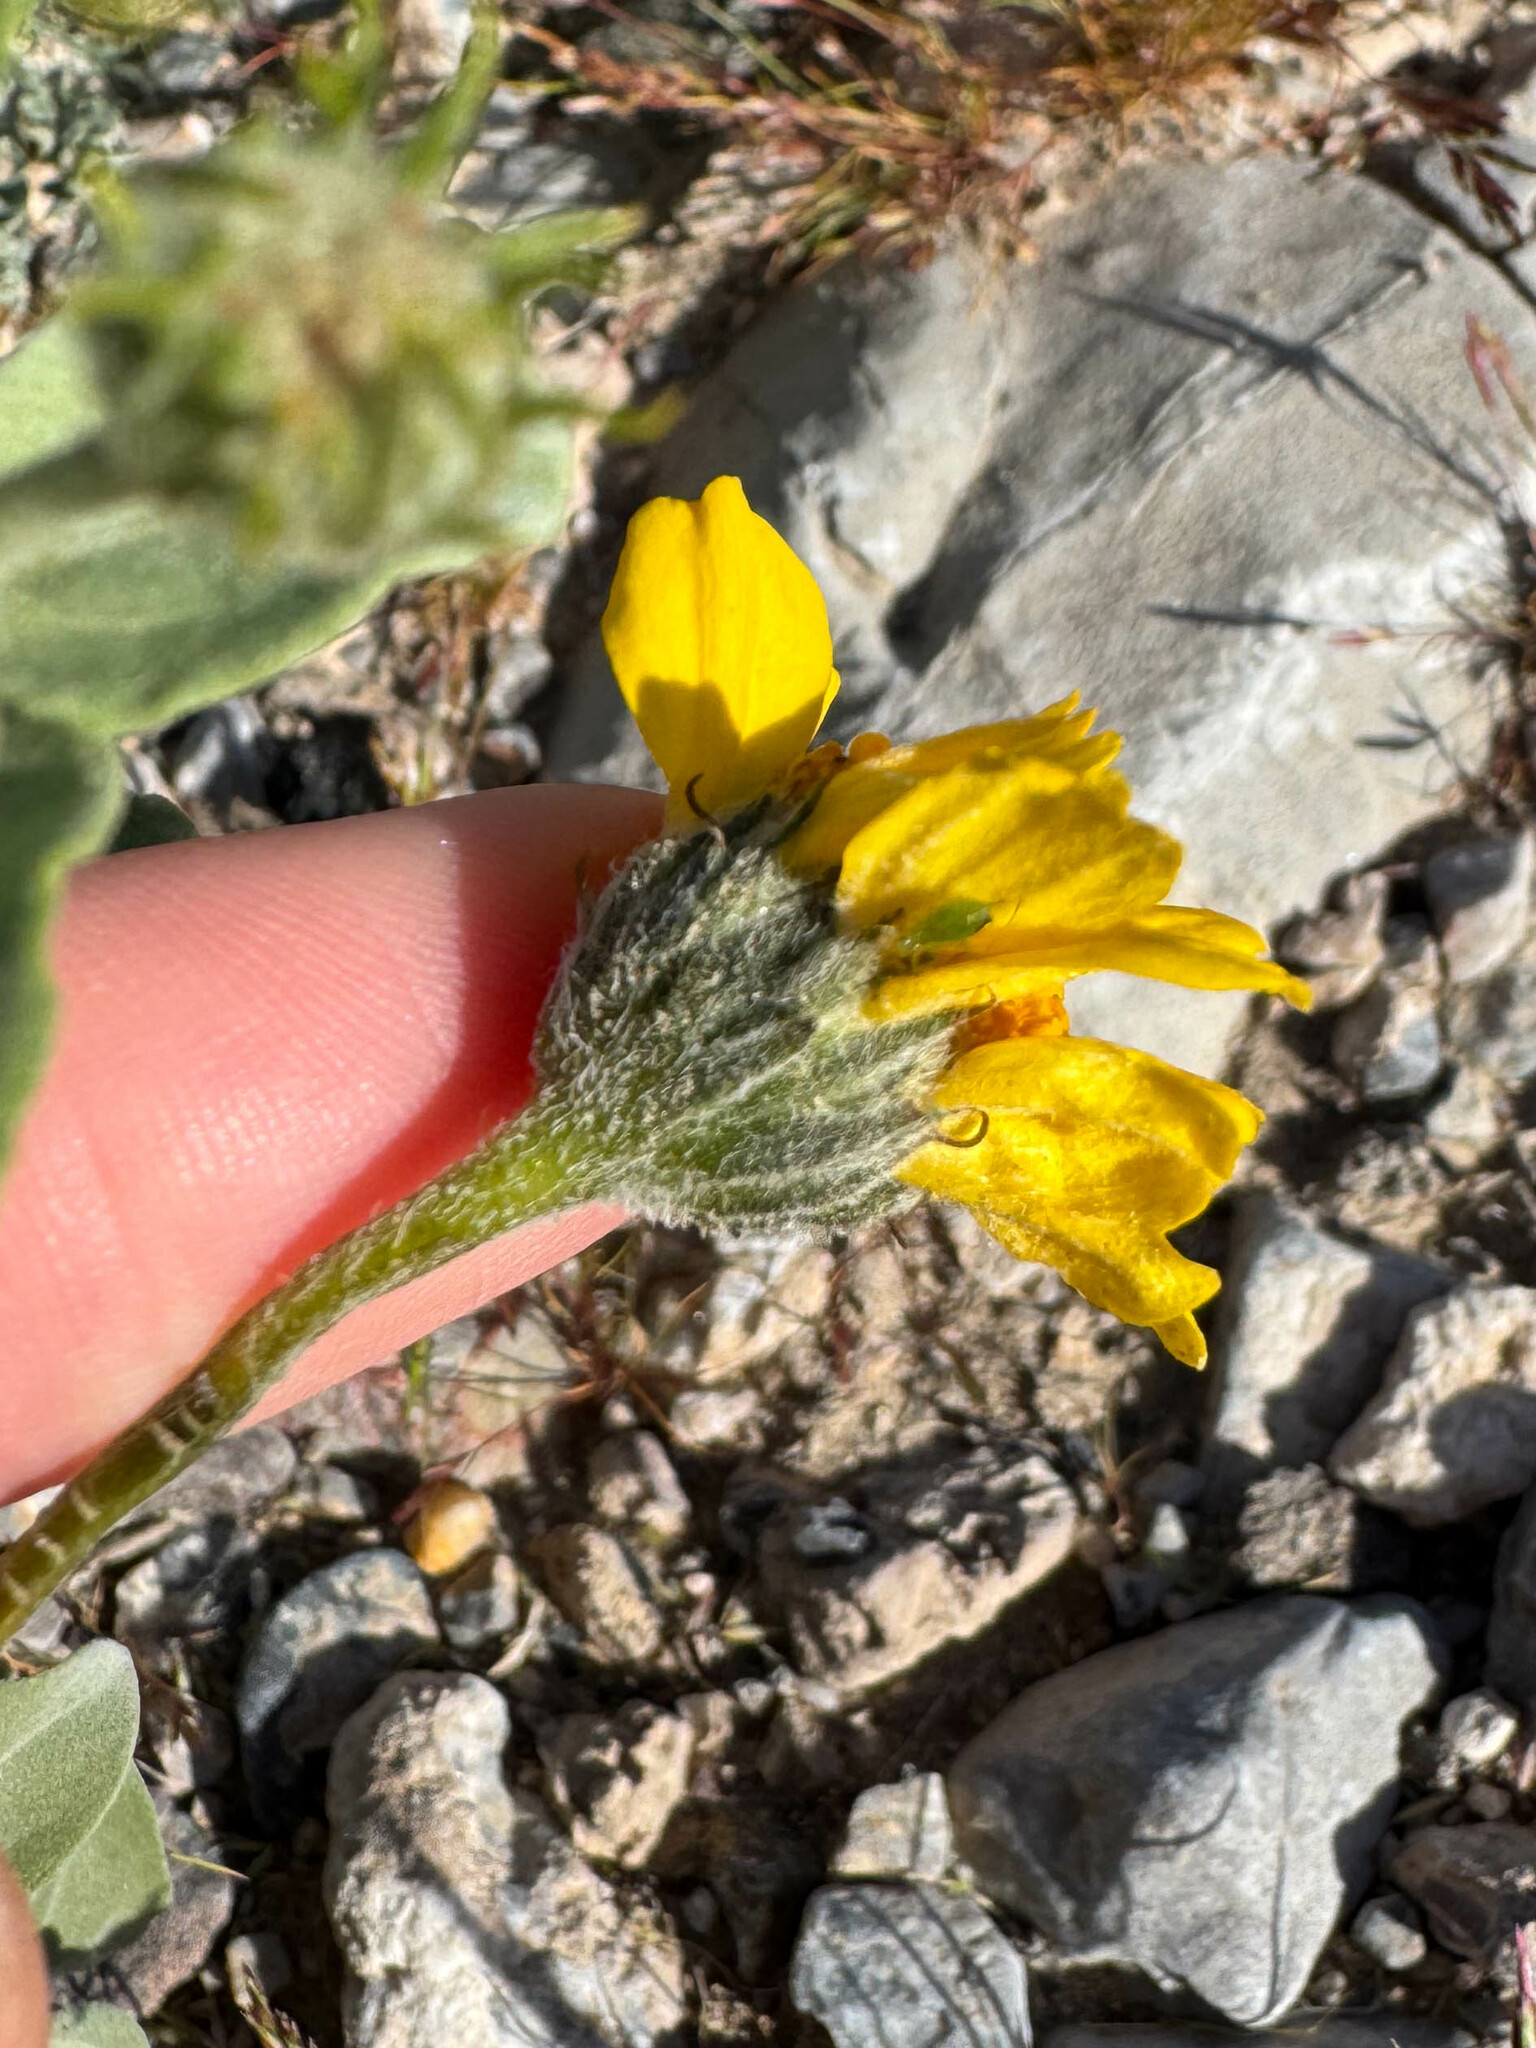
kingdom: Plantae
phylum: Tracheophyta
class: Magnoliopsida
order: Asterales
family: Asteraceae
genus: Encelia
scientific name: Encelia virginensis
